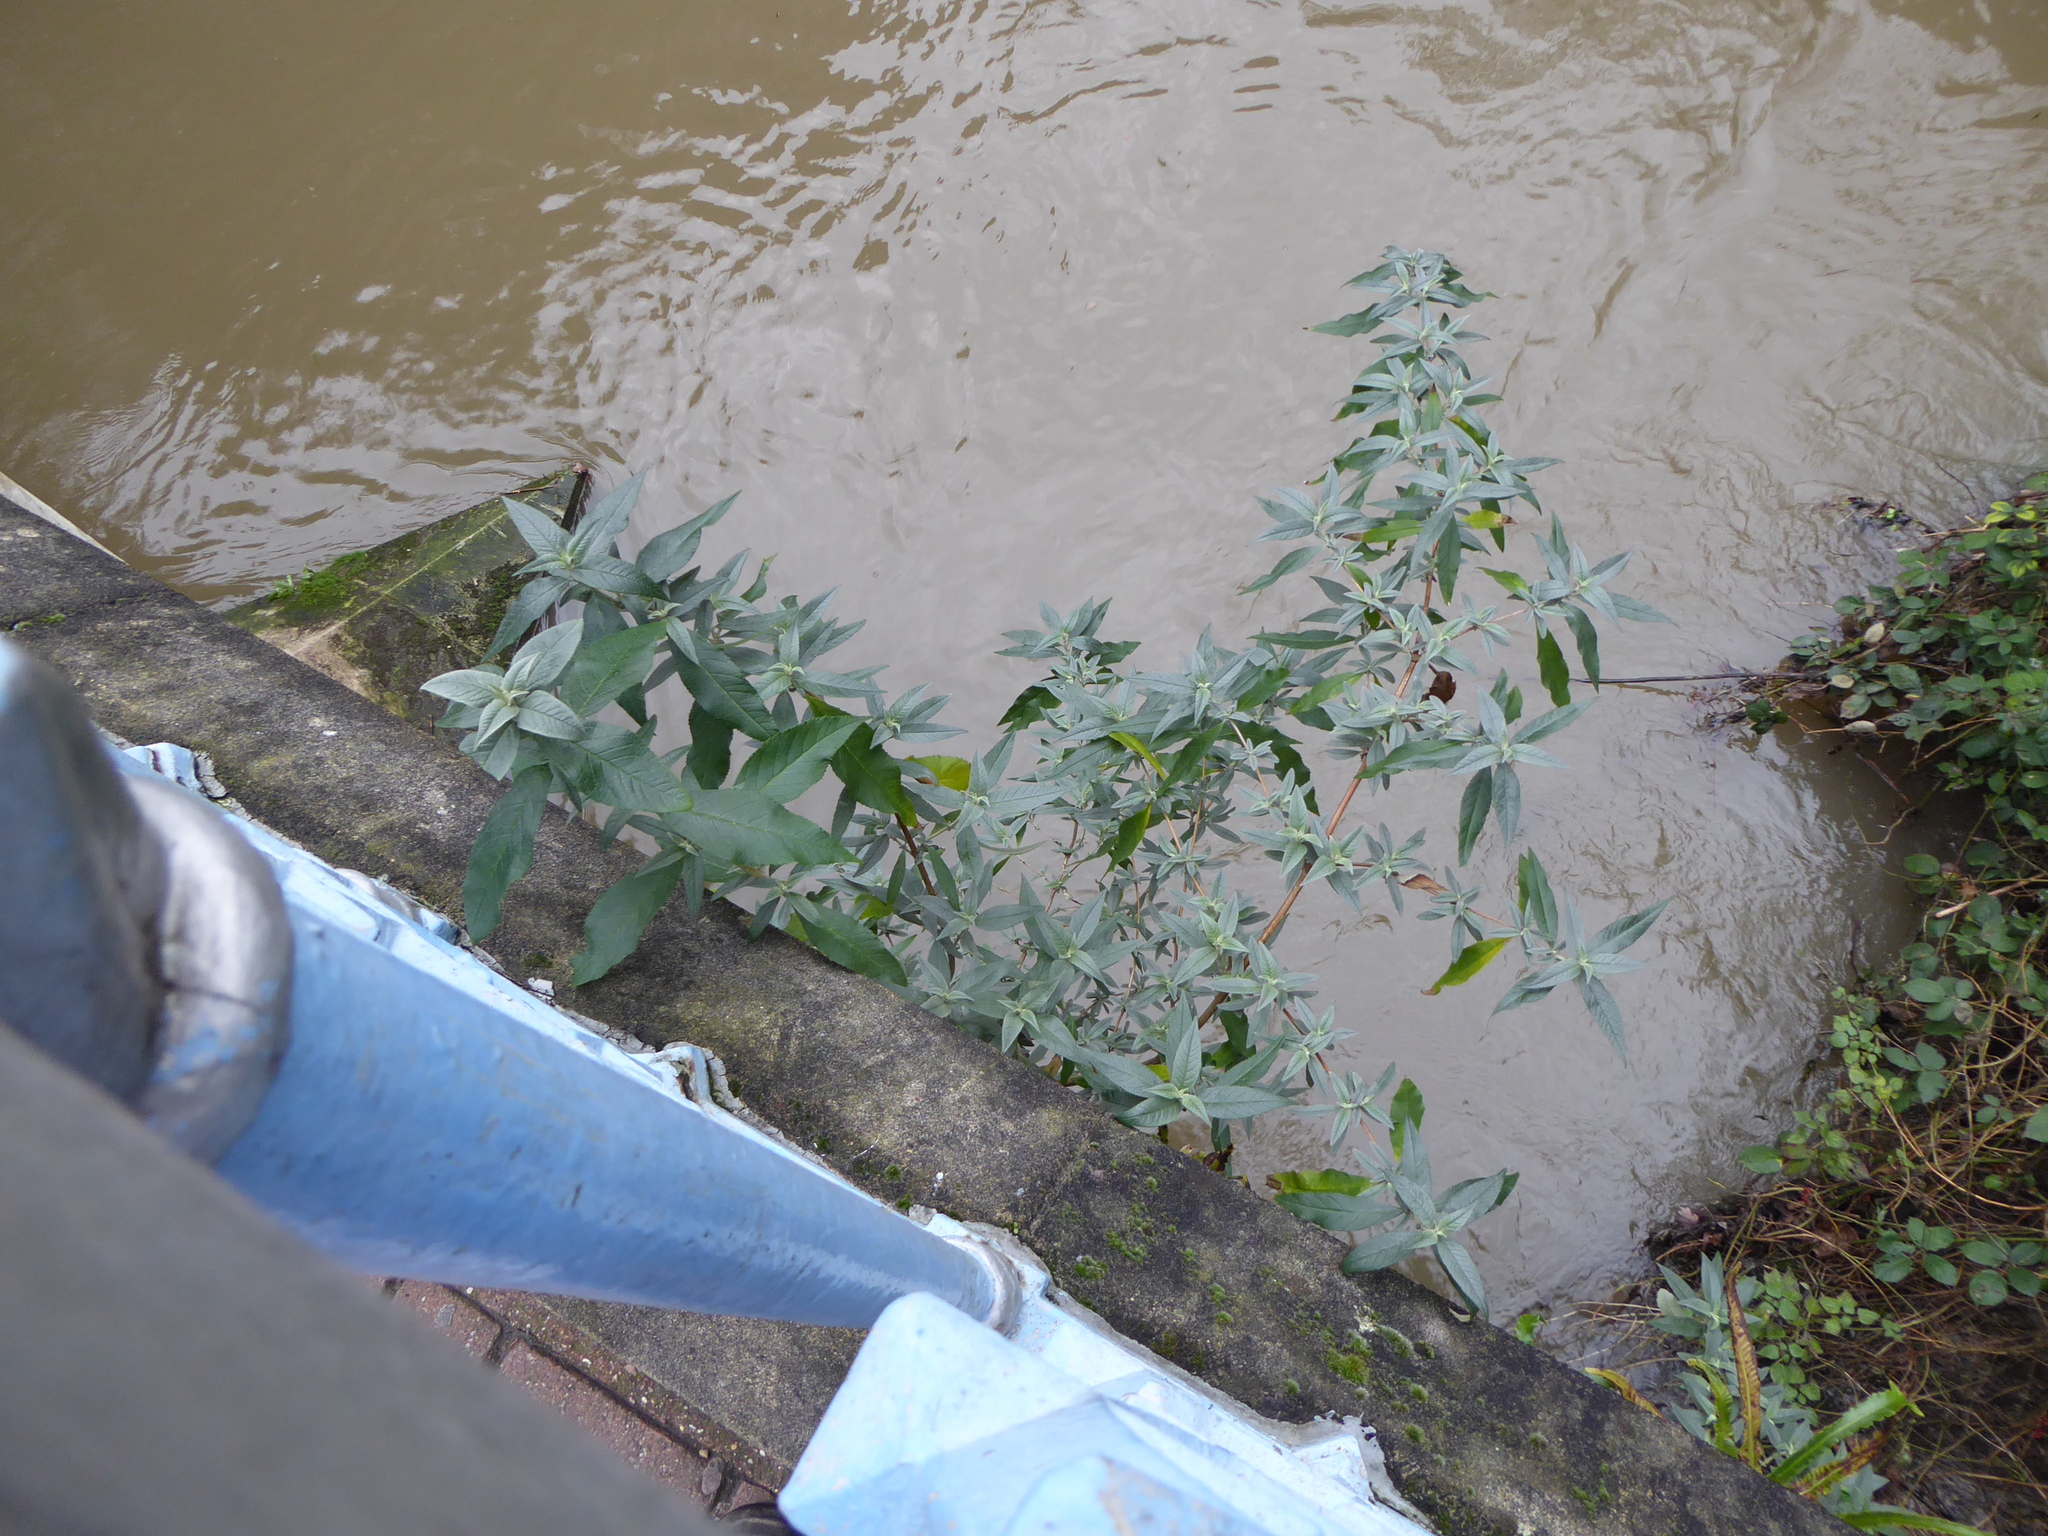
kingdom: Plantae
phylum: Tracheophyta
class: Magnoliopsida
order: Lamiales
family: Scrophulariaceae
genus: Buddleja
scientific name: Buddleja davidii
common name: Butterfly-bush
